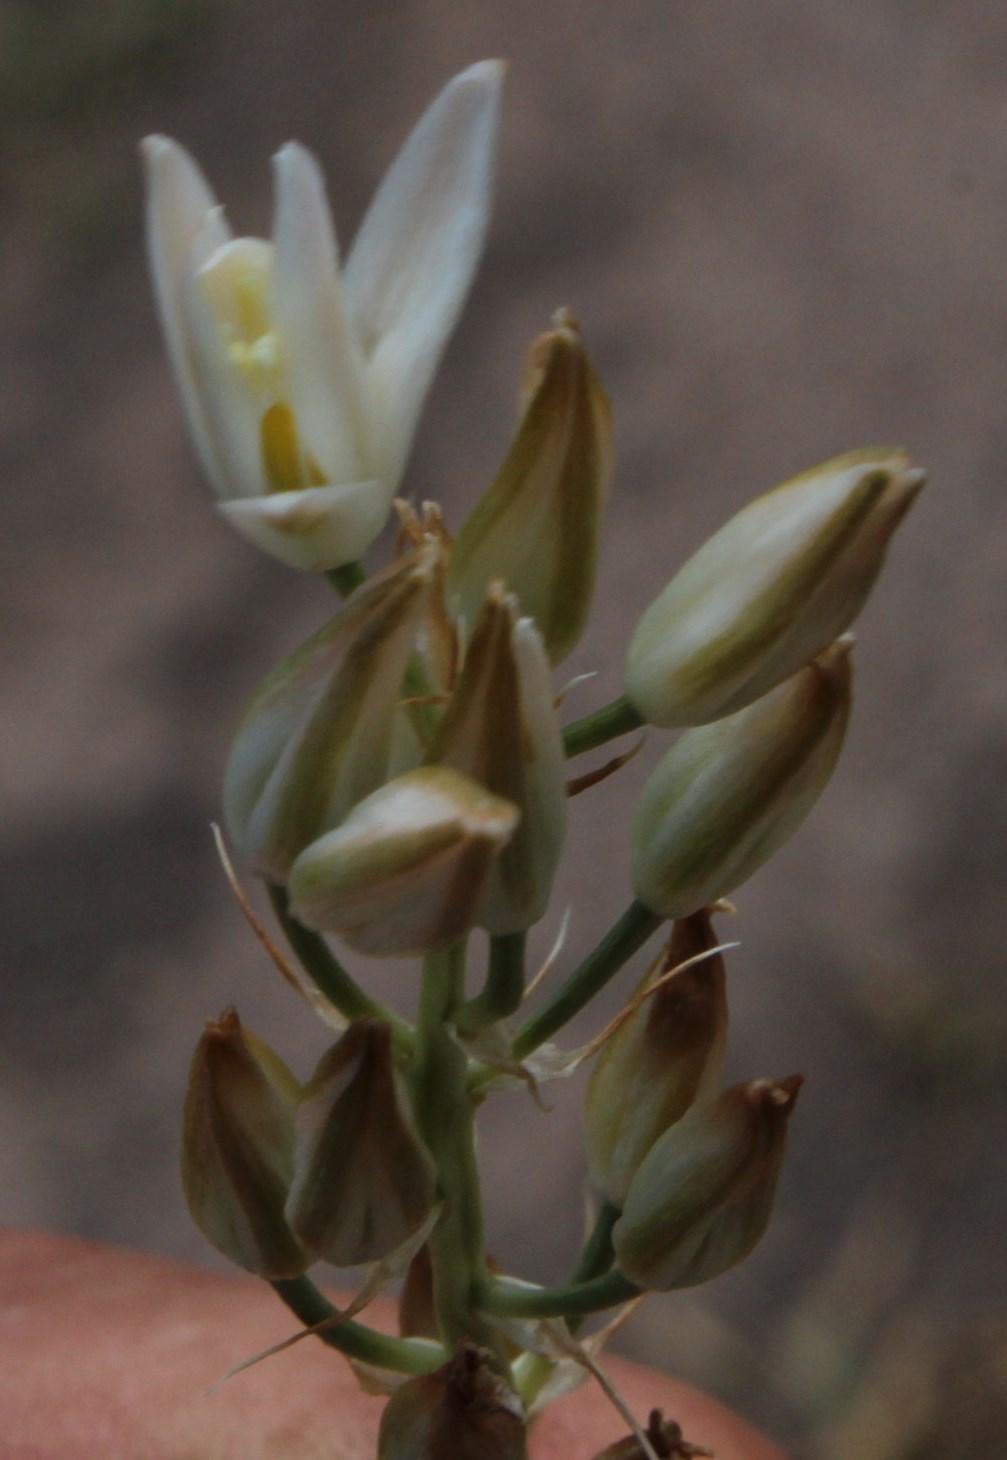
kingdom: Plantae
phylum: Tracheophyta
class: Liliopsida
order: Asparagales
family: Asparagaceae
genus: Ornithogalum
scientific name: Ornithogalum juncifolium
